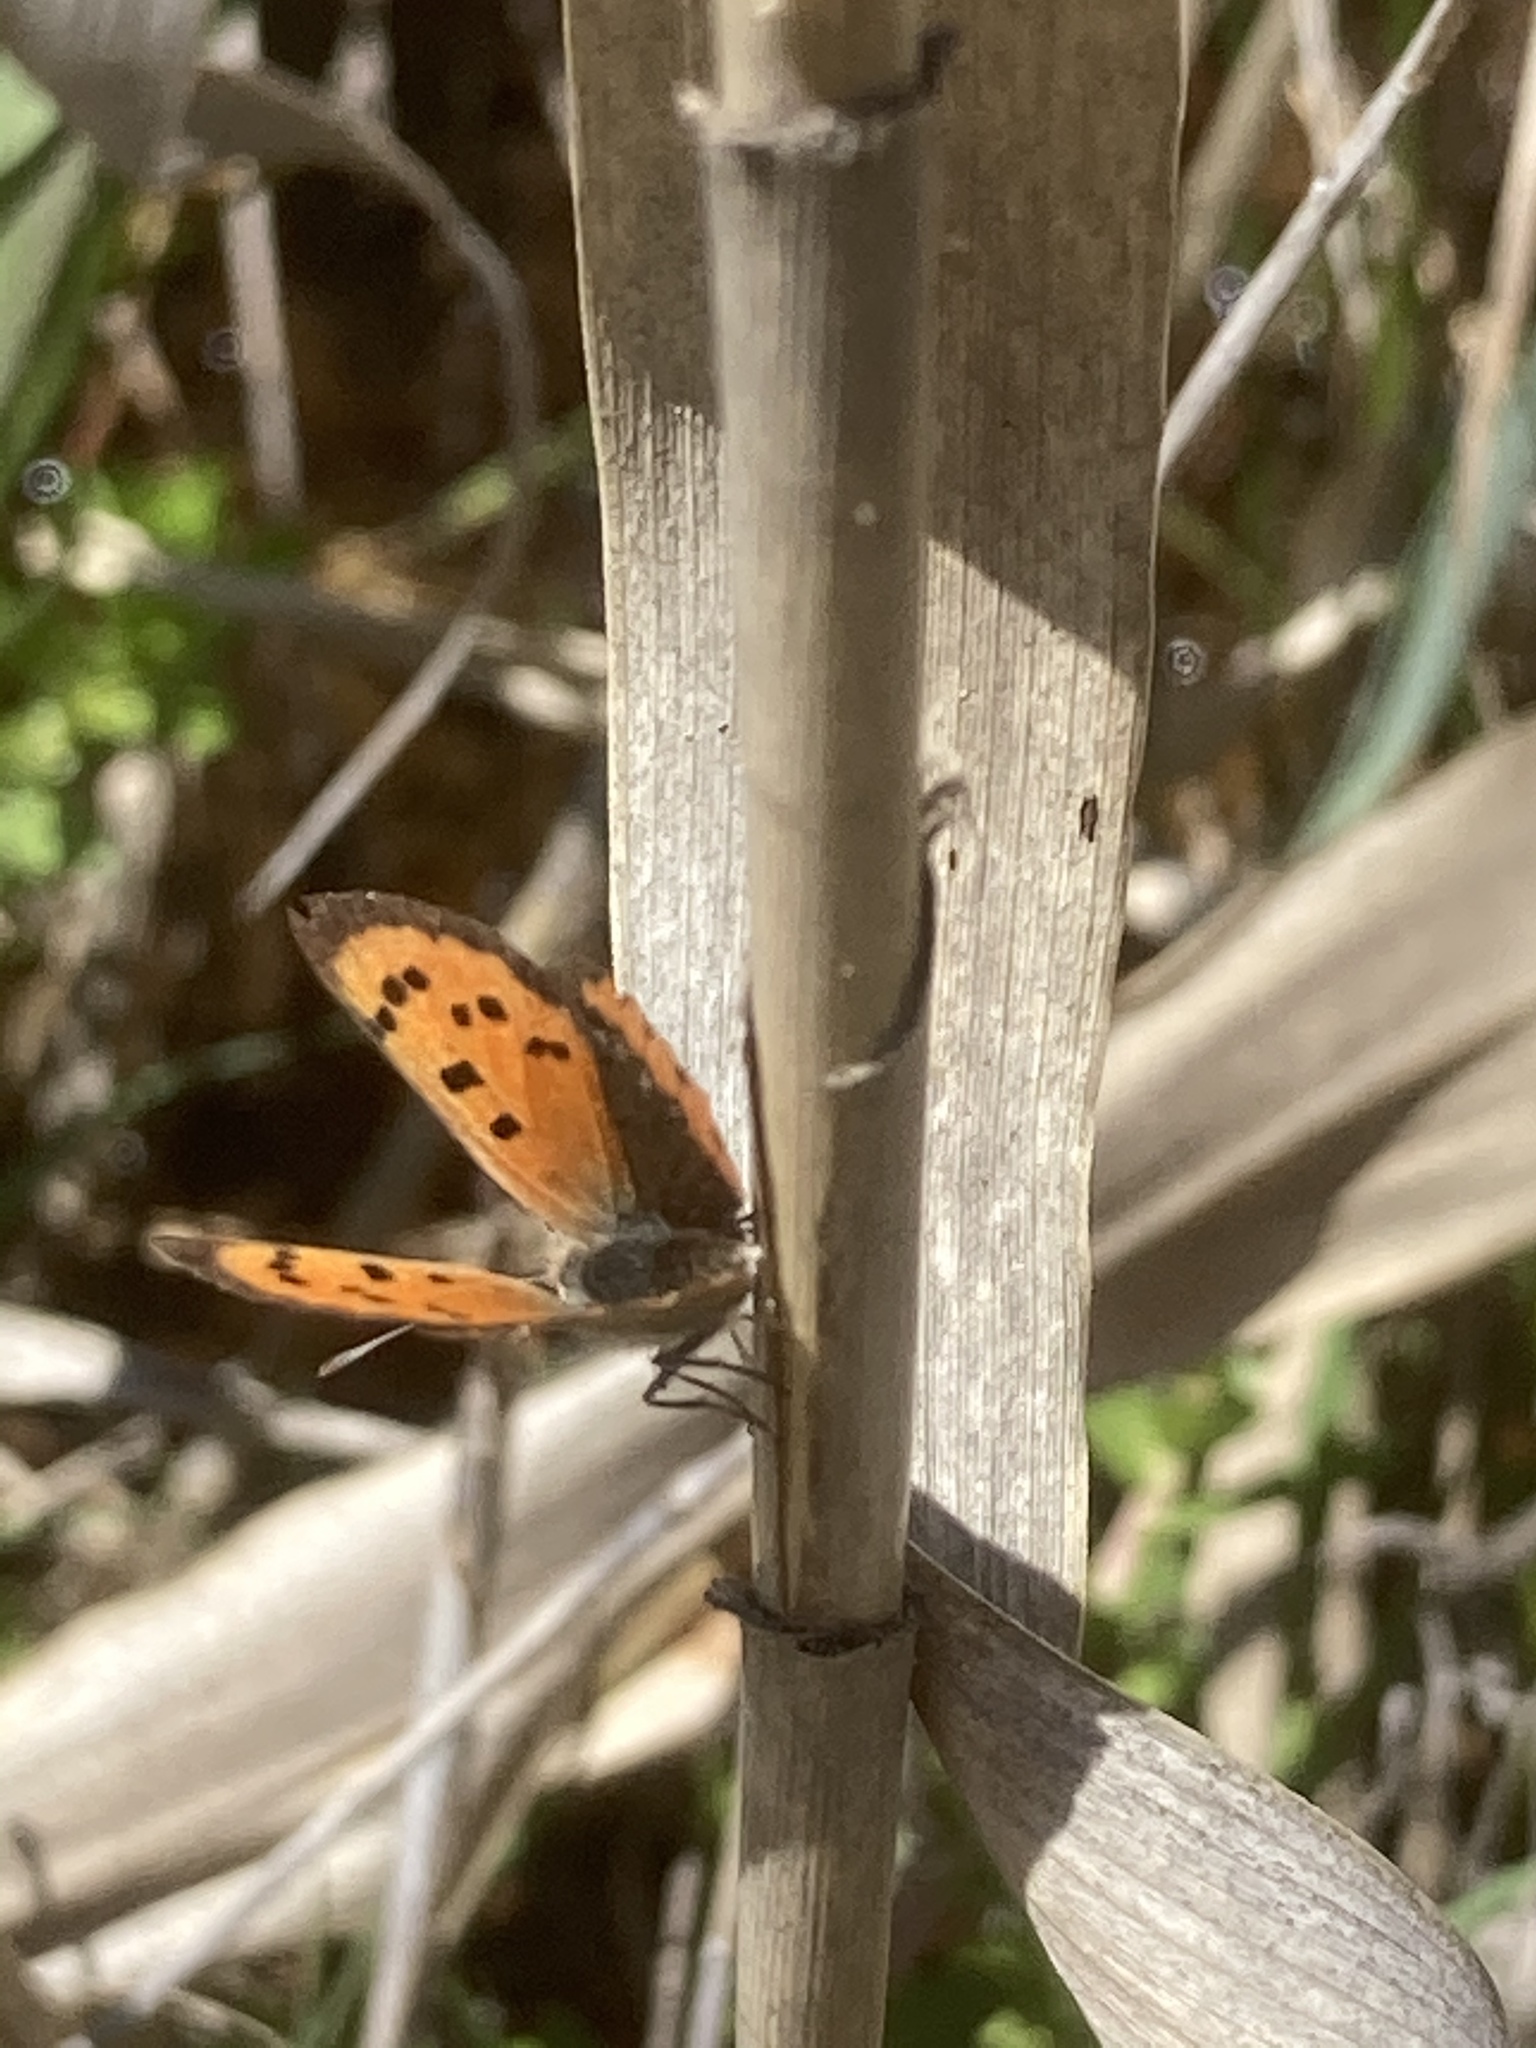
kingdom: Plantae
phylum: Tracheophyta
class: Liliopsida
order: Poales
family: Poaceae
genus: Arundo
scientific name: Arundo donax
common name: Giant reed
